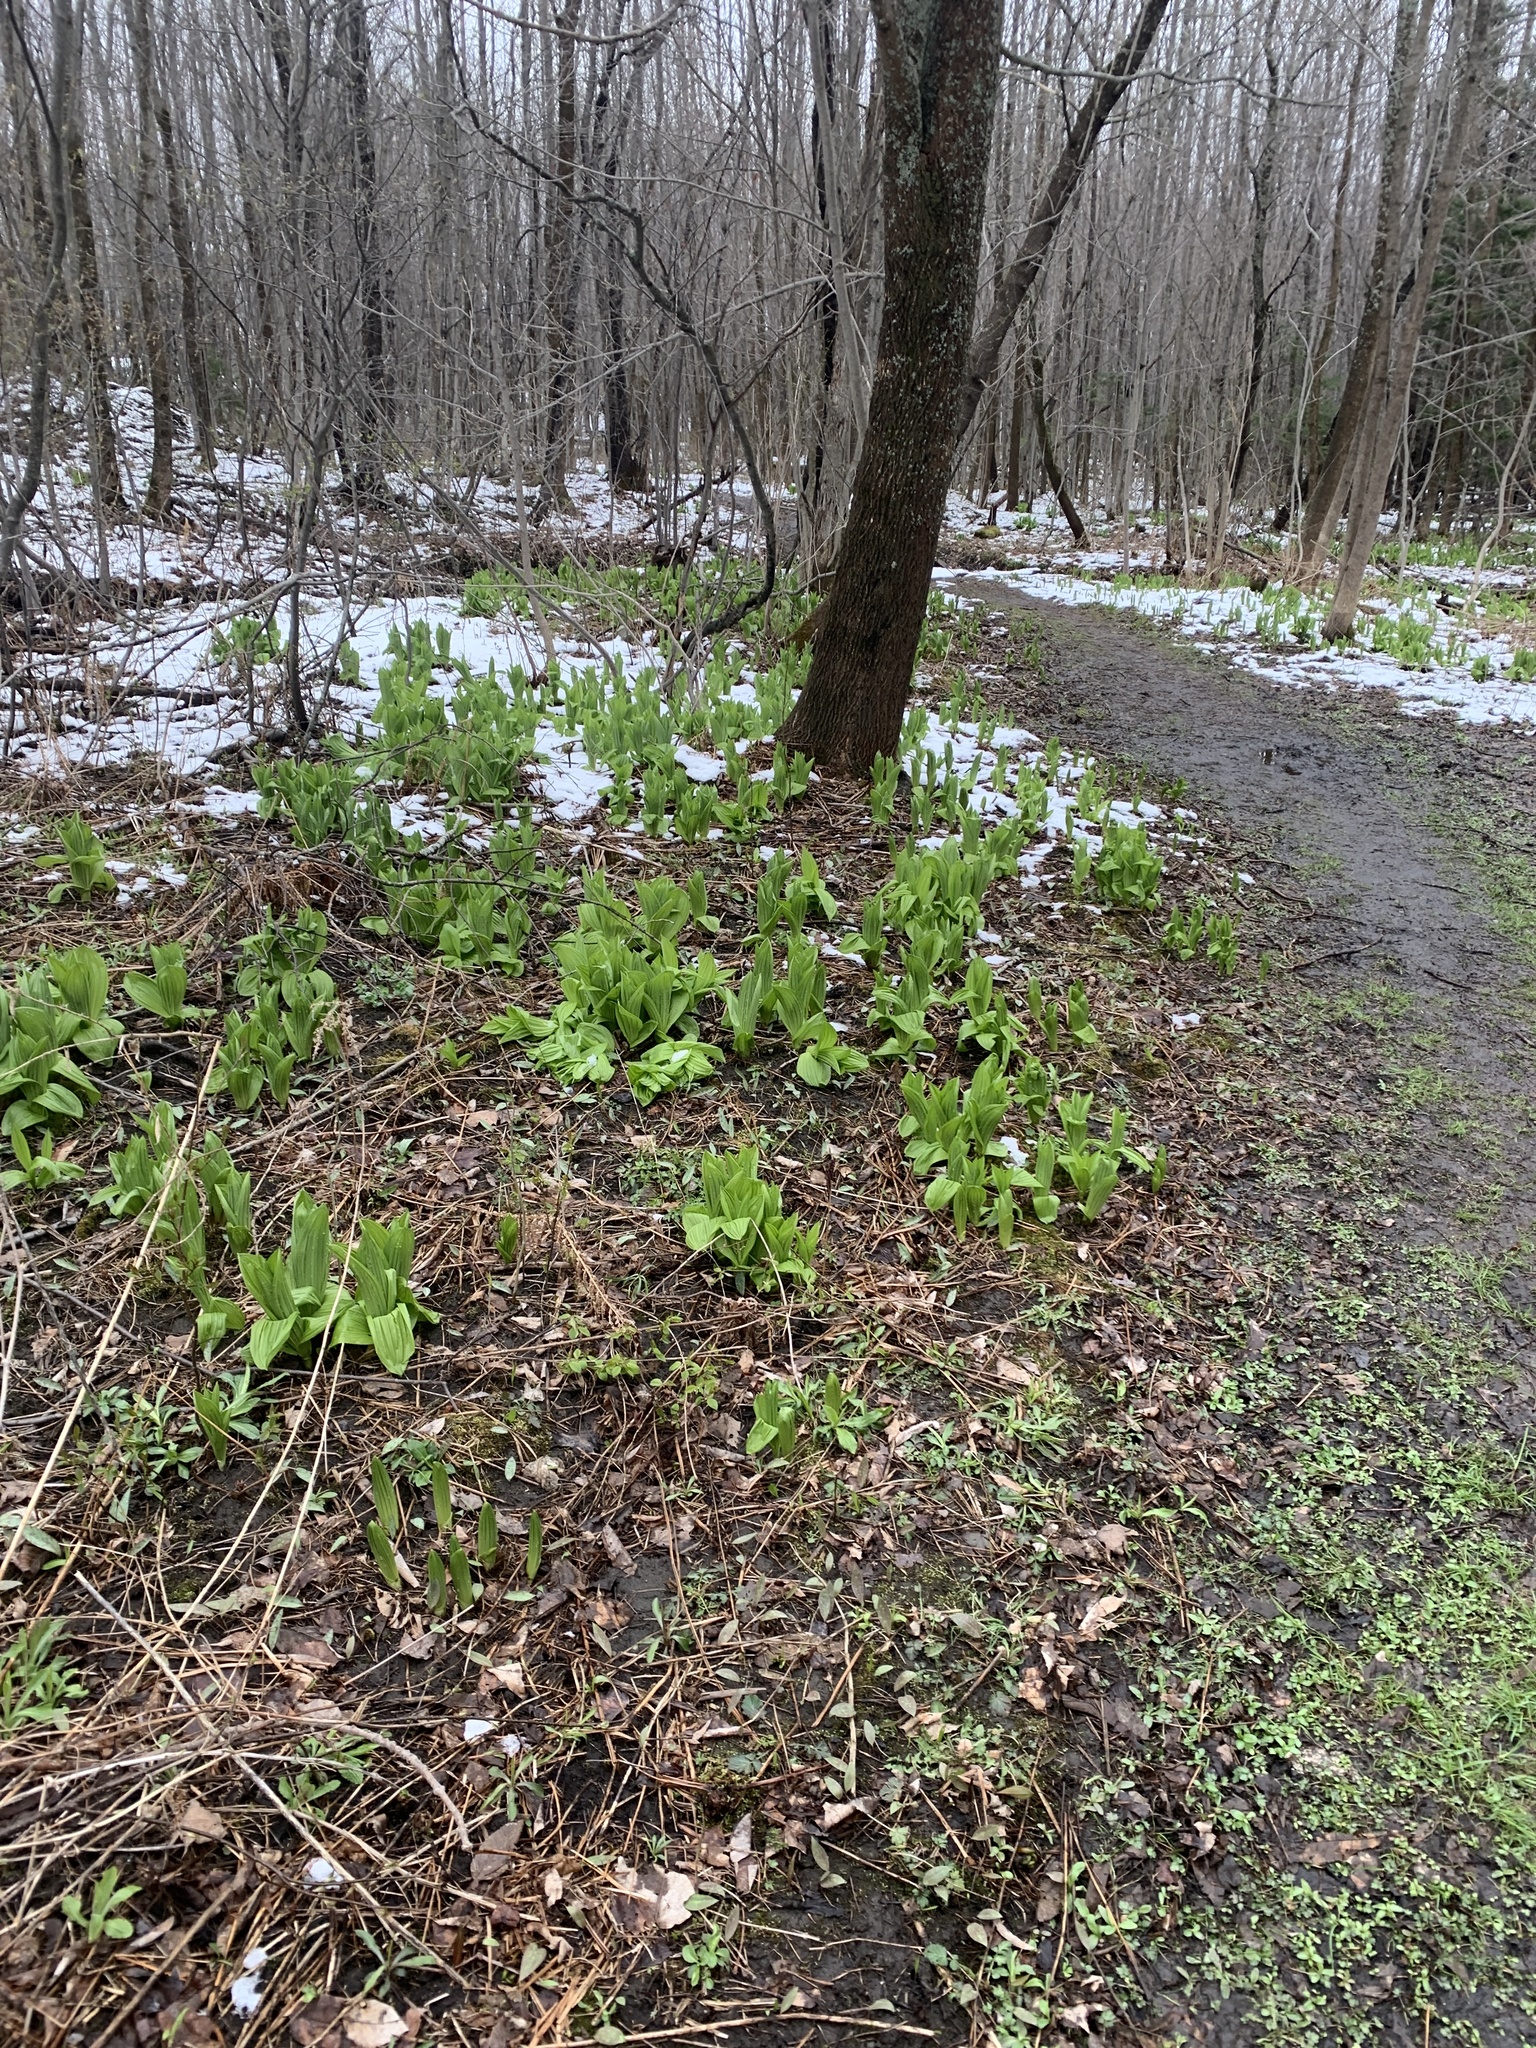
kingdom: Plantae
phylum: Tracheophyta
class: Liliopsida
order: Liliales
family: Melanthiaceae
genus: Veratrum
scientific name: Veratrum viride
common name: American false hellebore
